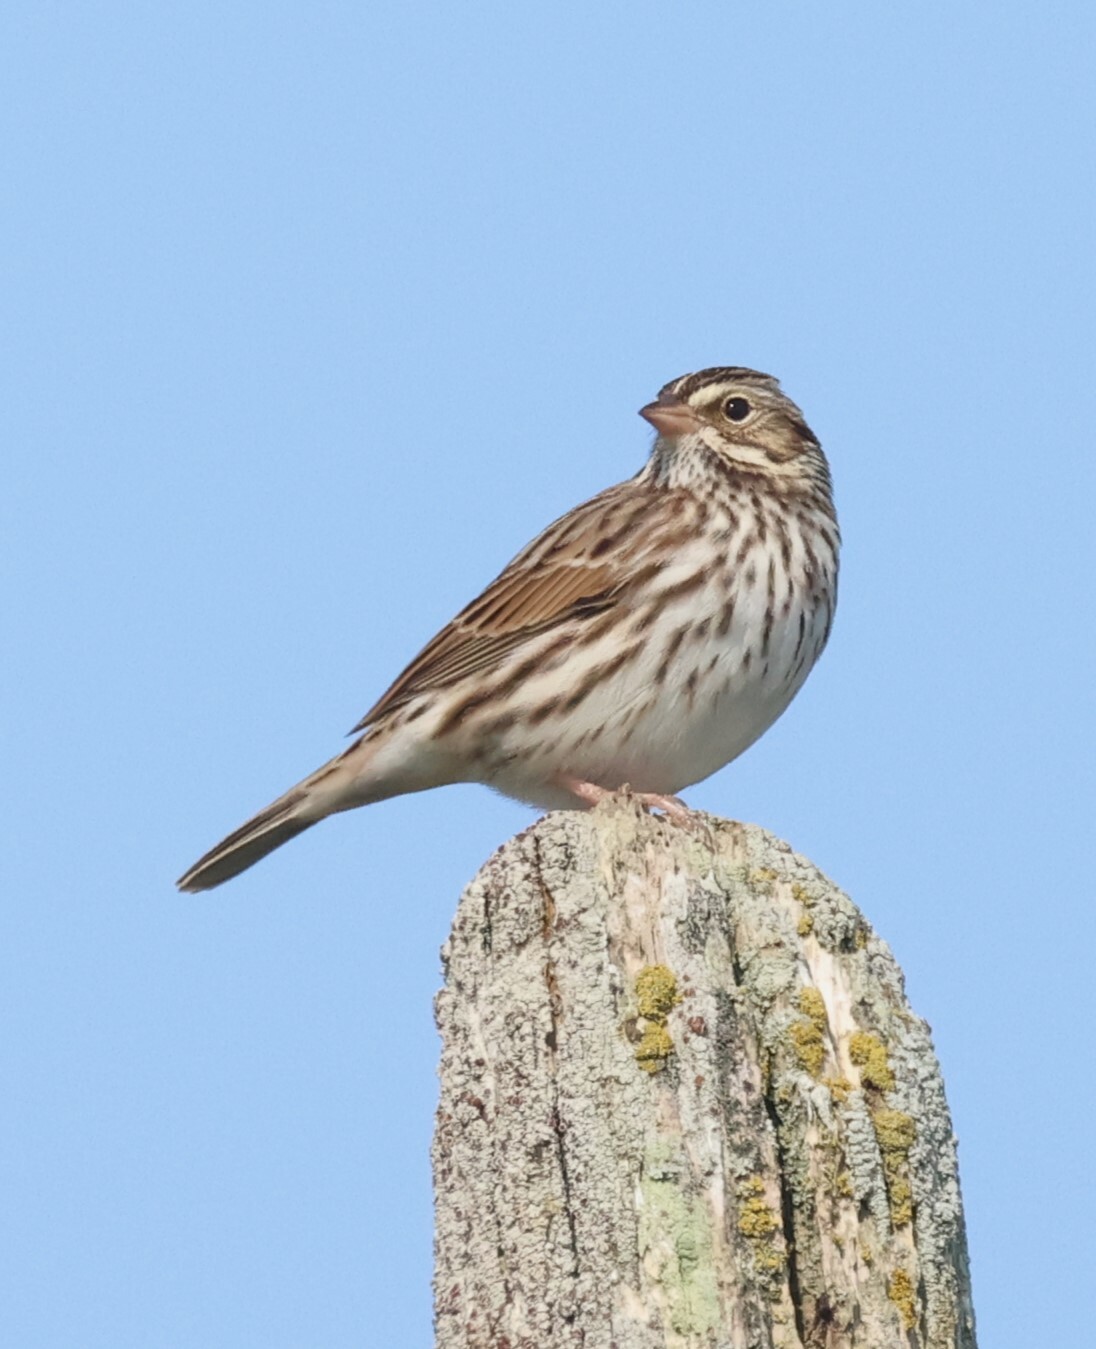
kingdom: Animalia
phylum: Chordata
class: Aves
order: Passeriformes
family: Passerellidae
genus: Passerculus
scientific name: Passerculus sandwichensis
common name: Savannah sparrow
